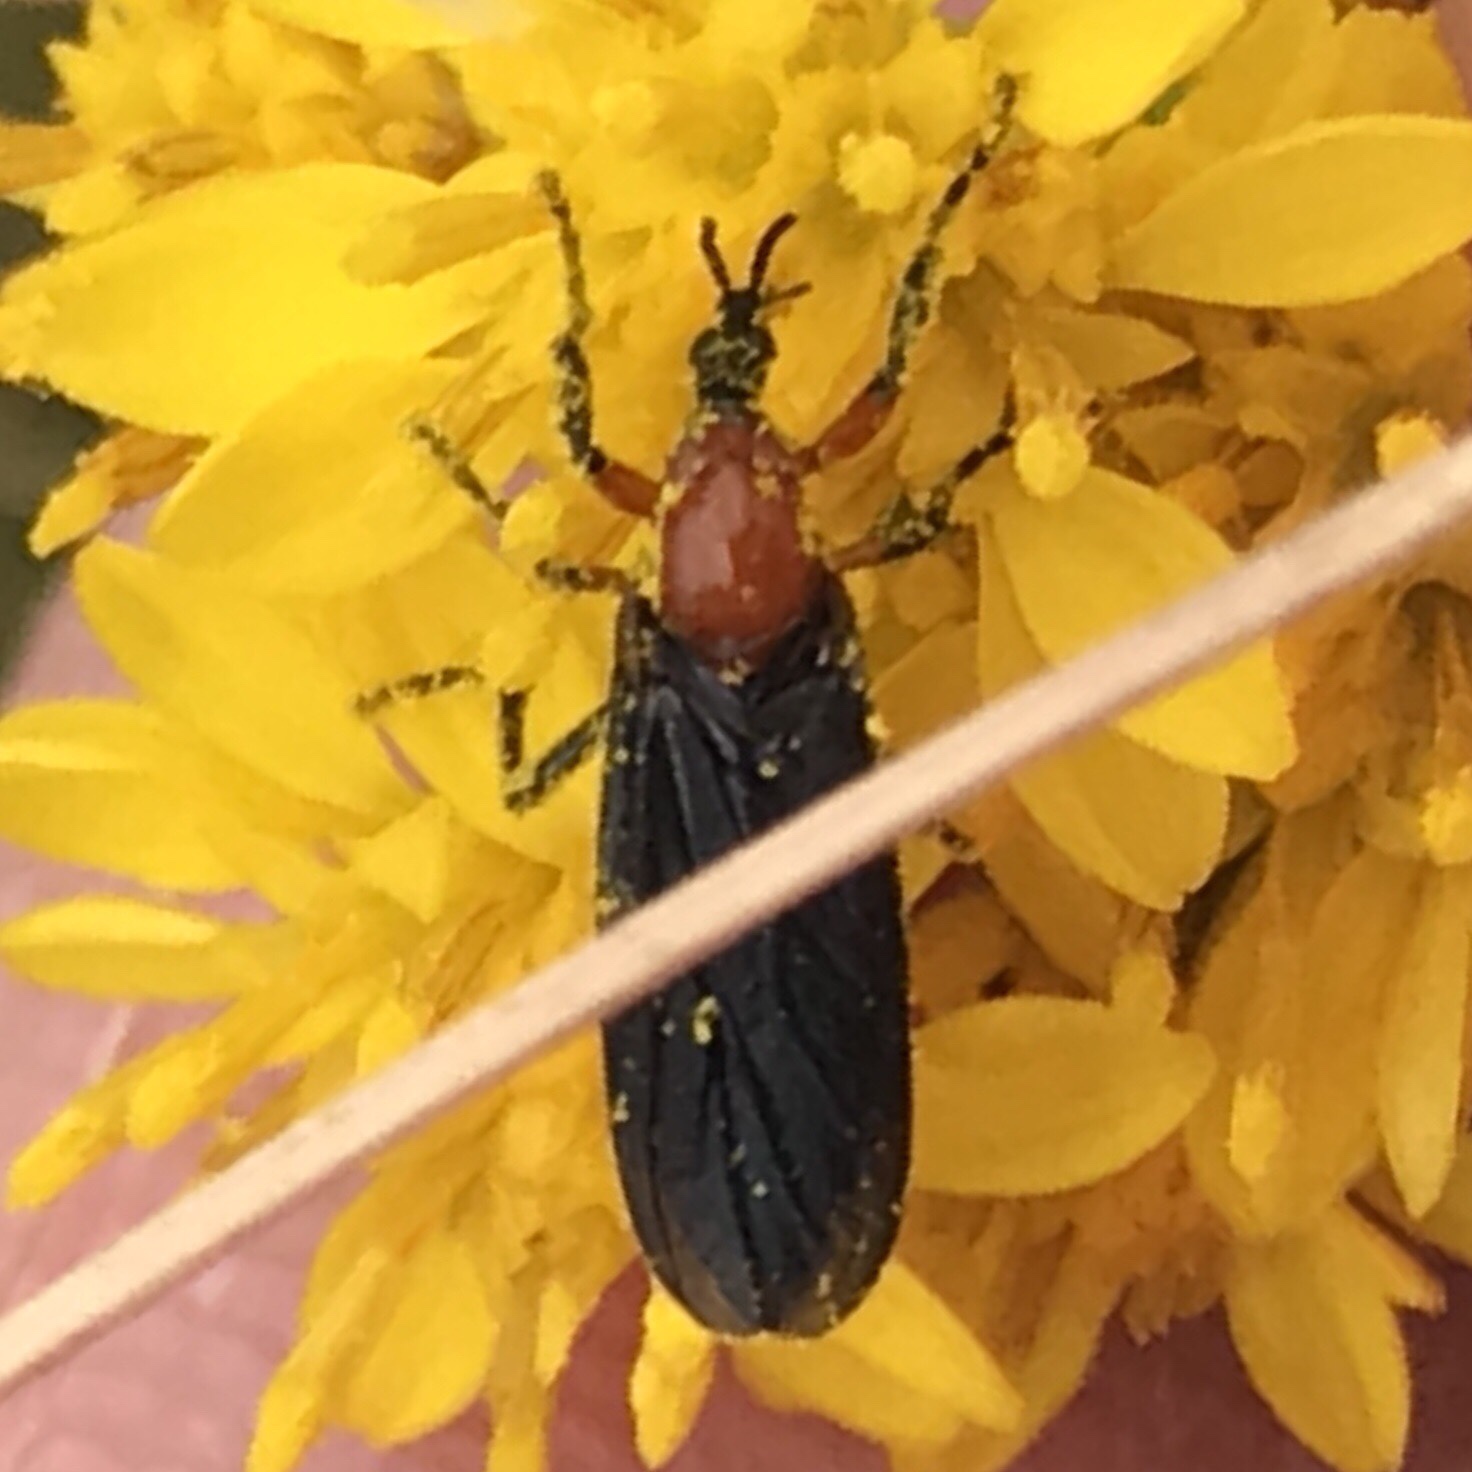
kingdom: Animalia
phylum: Arthropoda
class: Insecta
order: Diptera
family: Bibionidae
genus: Dilophus
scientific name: Dilophus spinipes
